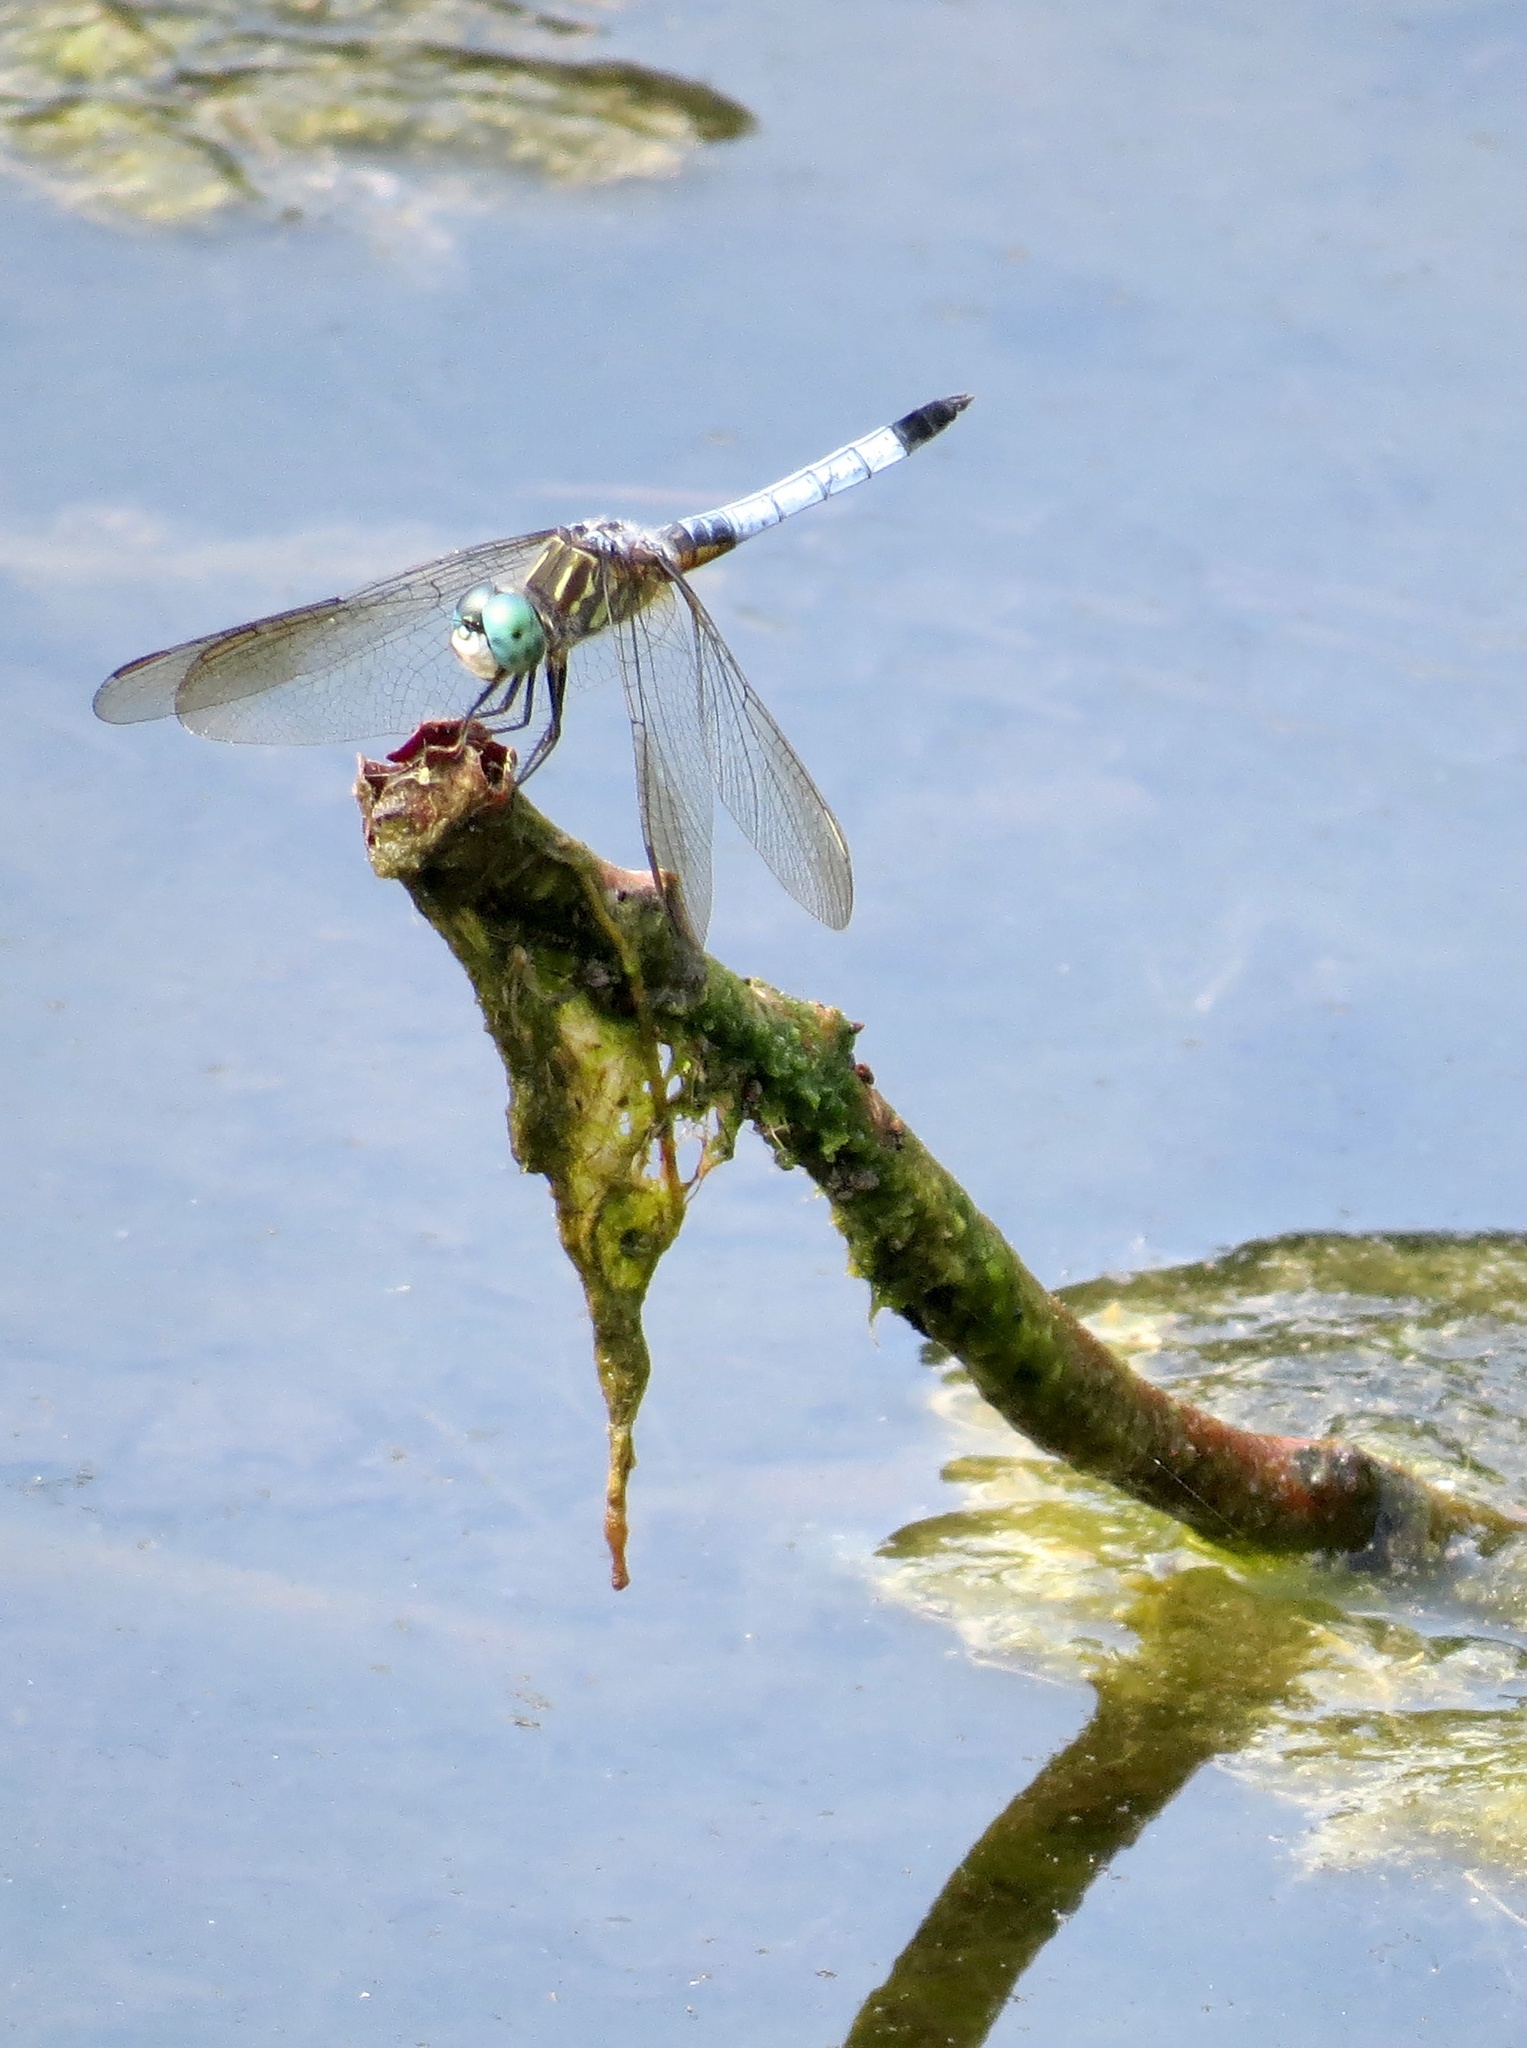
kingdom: Animalia
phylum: Arthropoda
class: Insecta
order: Odonata
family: Libellulidae
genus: Pachydiplax
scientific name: Pachydiplax longipennis
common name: Blue dasher
